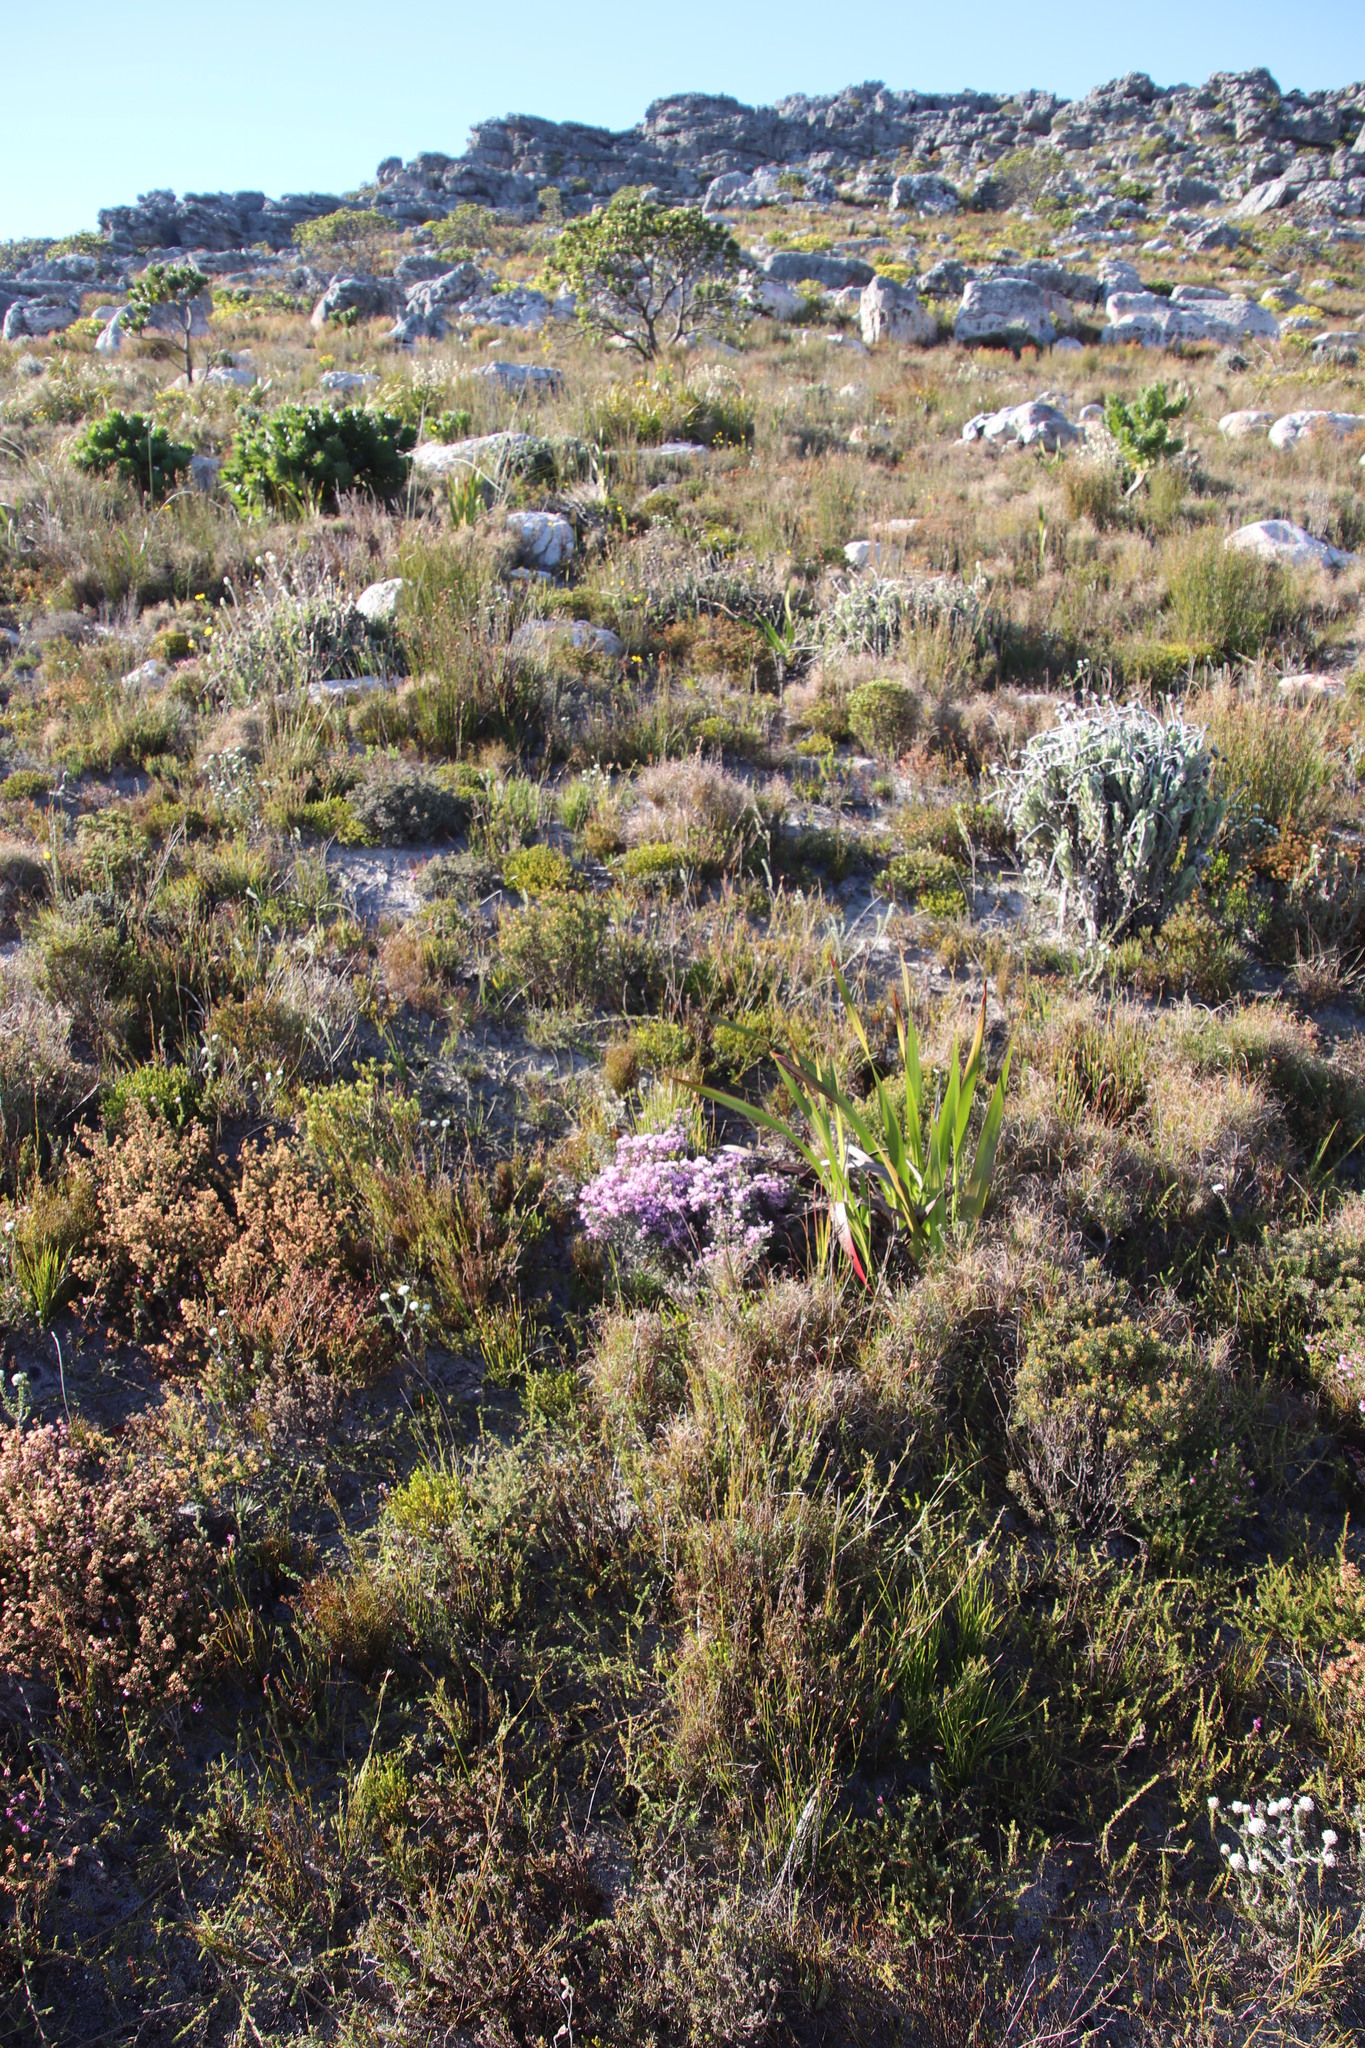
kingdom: Plantae
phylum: Tracheophyta
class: Magnoliopsida
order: Fabales
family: Fabaceae
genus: Amphithalea
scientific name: Amphithalea ericifolia
